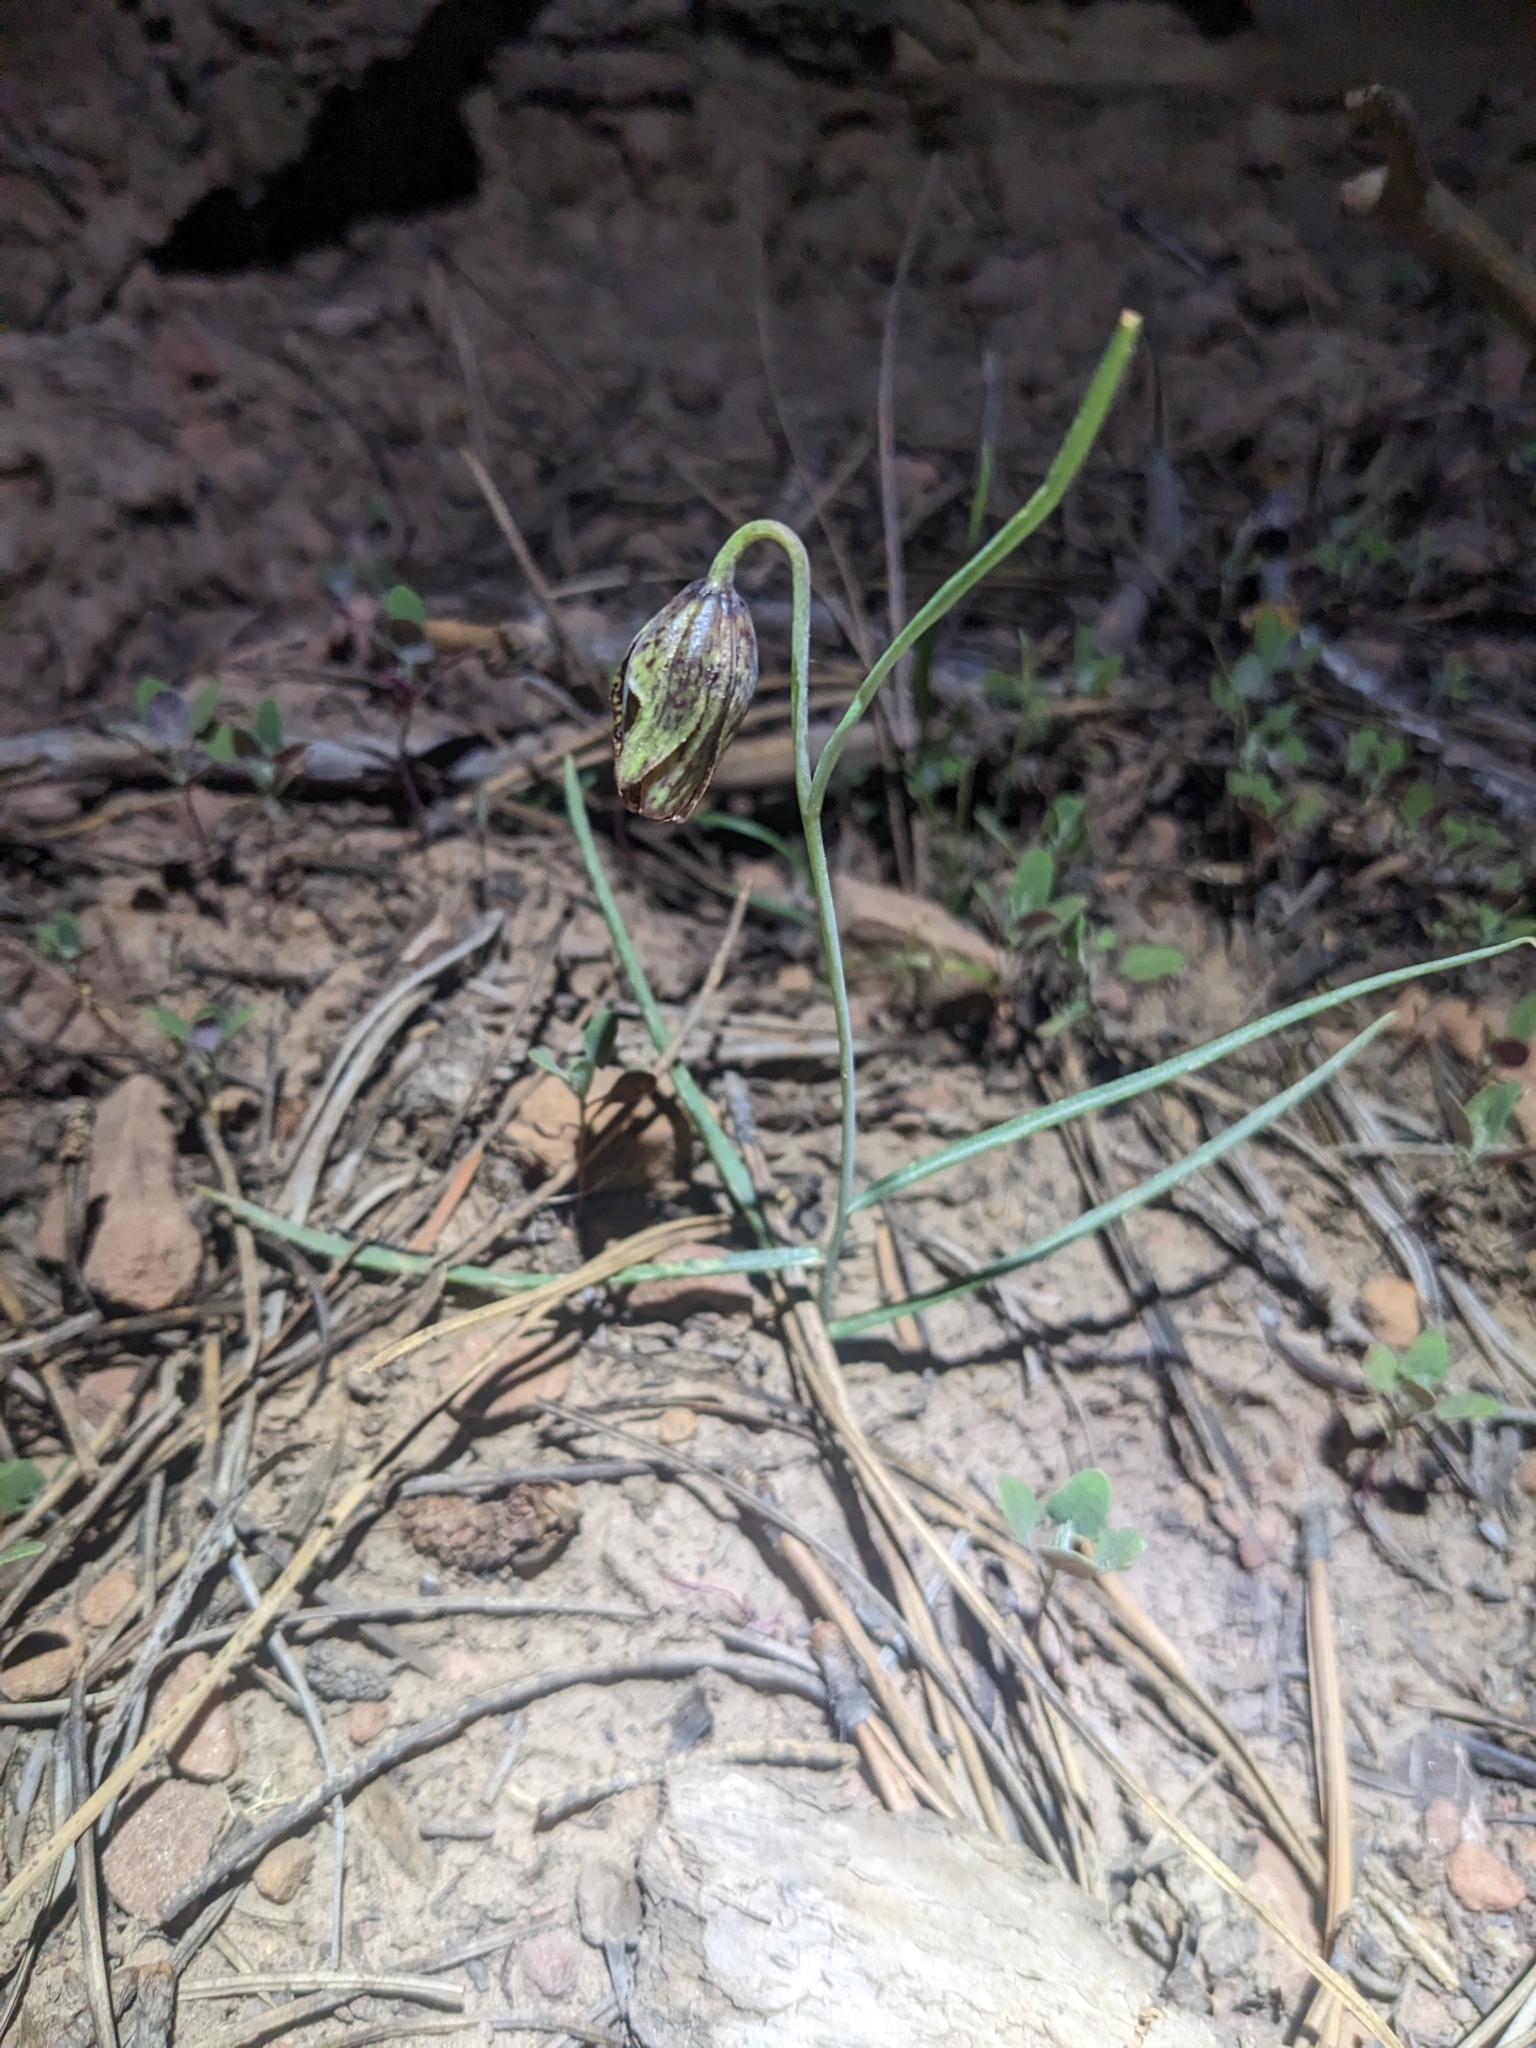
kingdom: Plantae
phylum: Tracheophyta
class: Liliopsida
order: Liliales
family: Liliaceae
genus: Fritillaria
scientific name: Fritillaria atropurpurea
